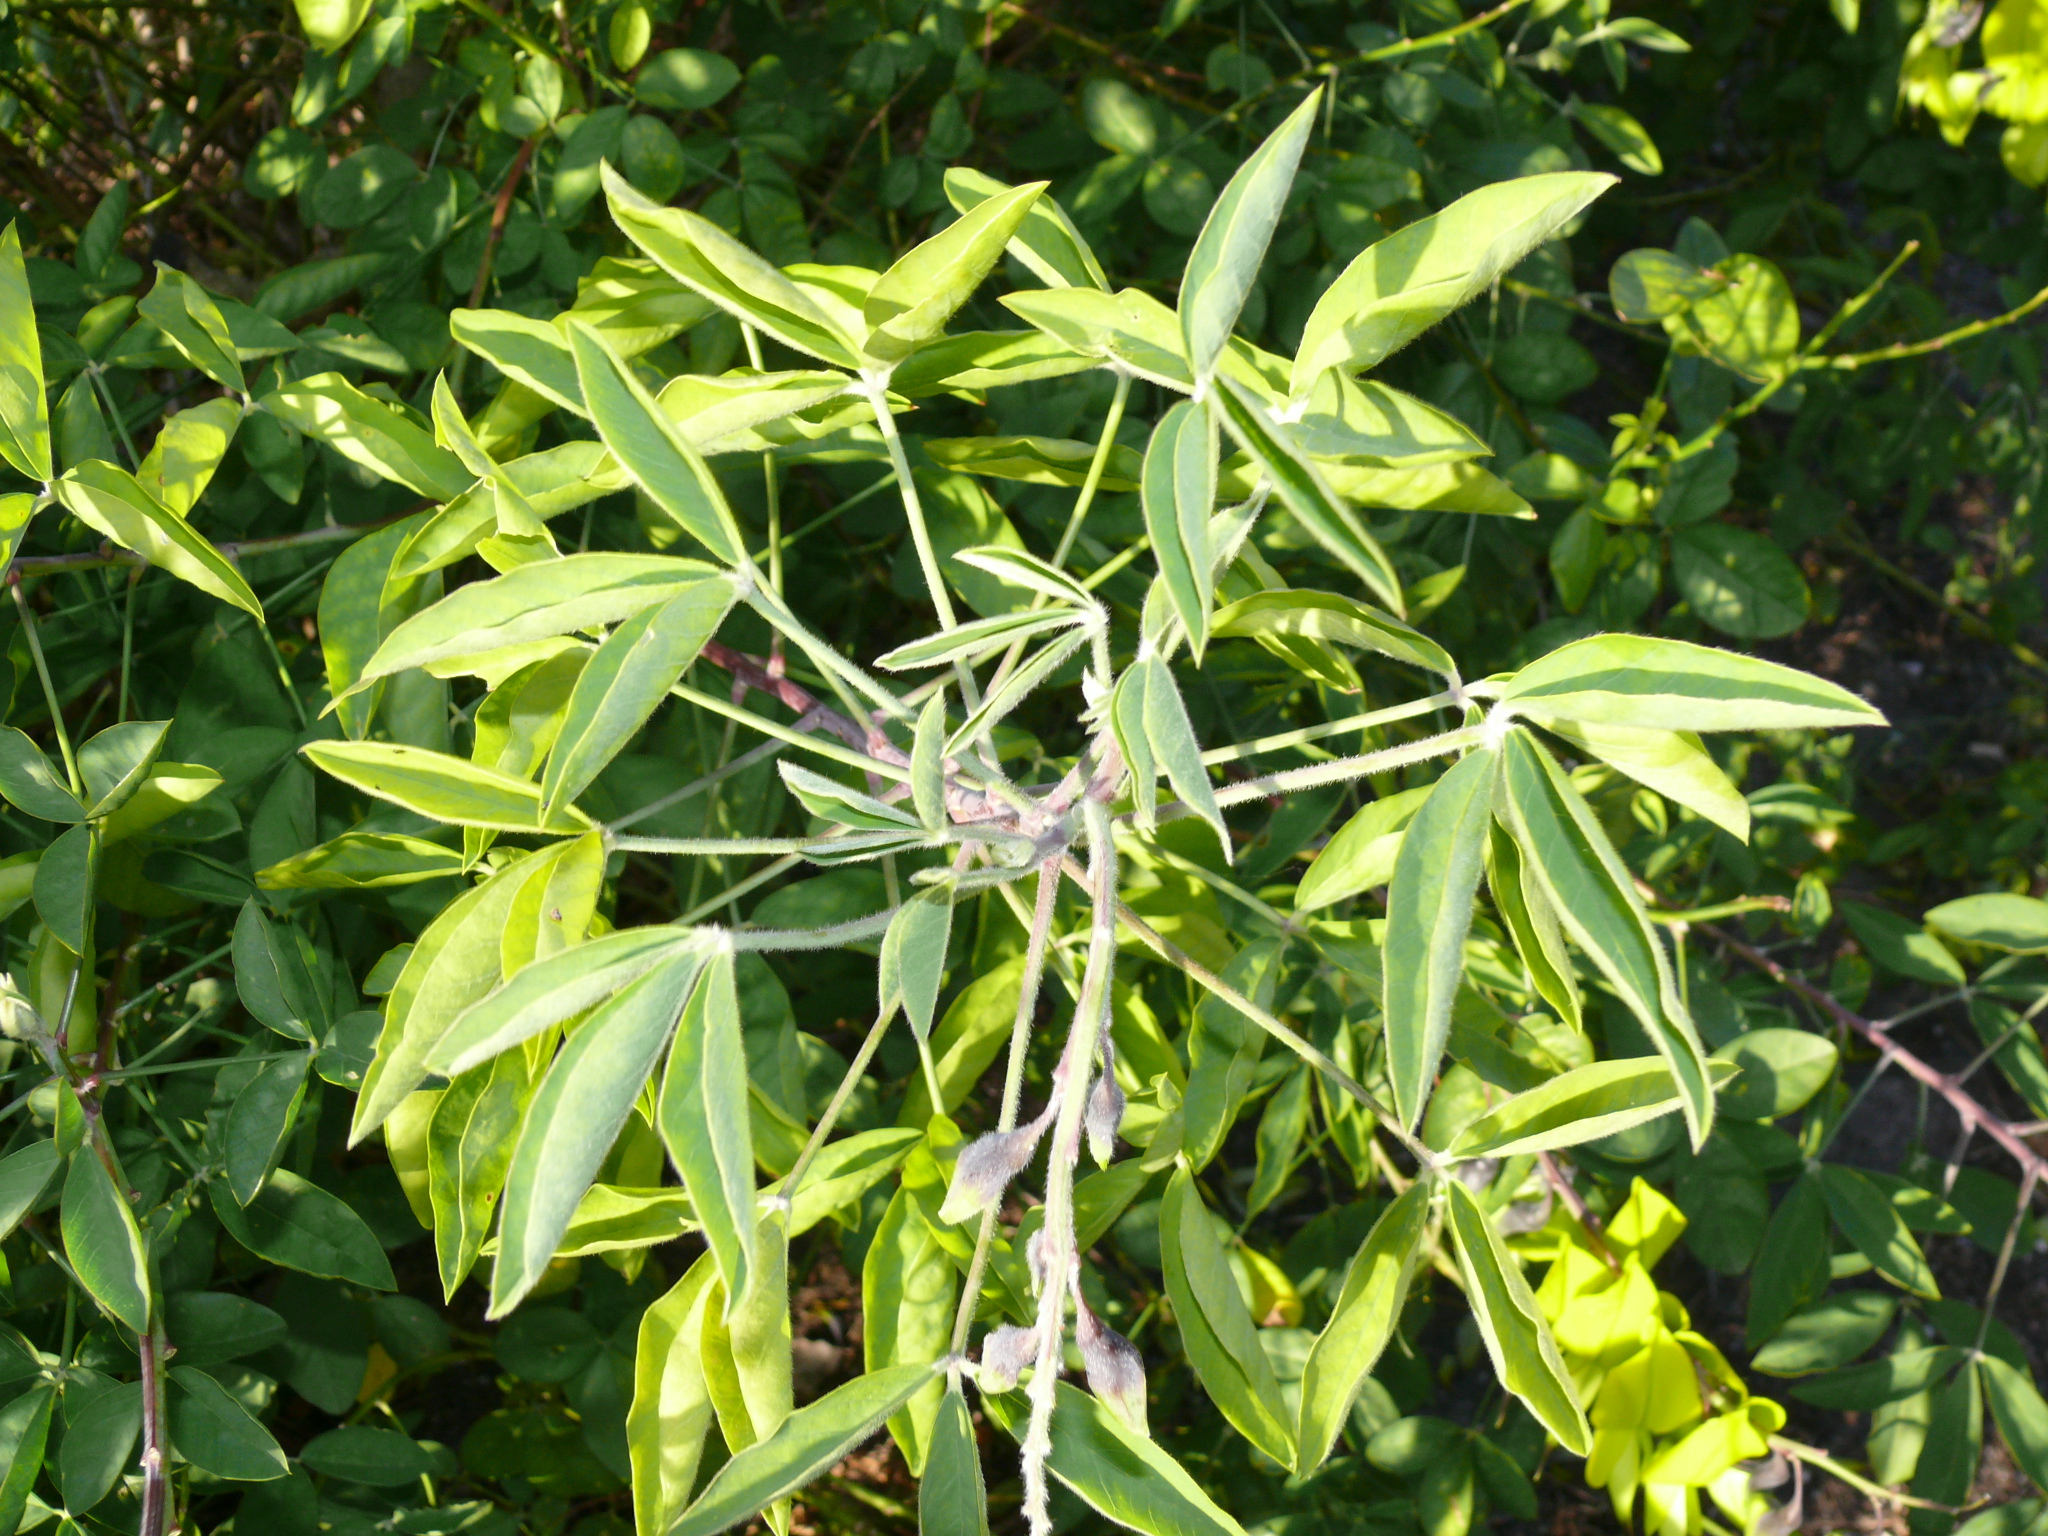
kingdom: Plantae
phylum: Tracheophyta
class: Magnoliopsida
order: Fabales
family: Fabaceae
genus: Crotalaria
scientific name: Crotalaria agatiflora
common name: Birdflower
